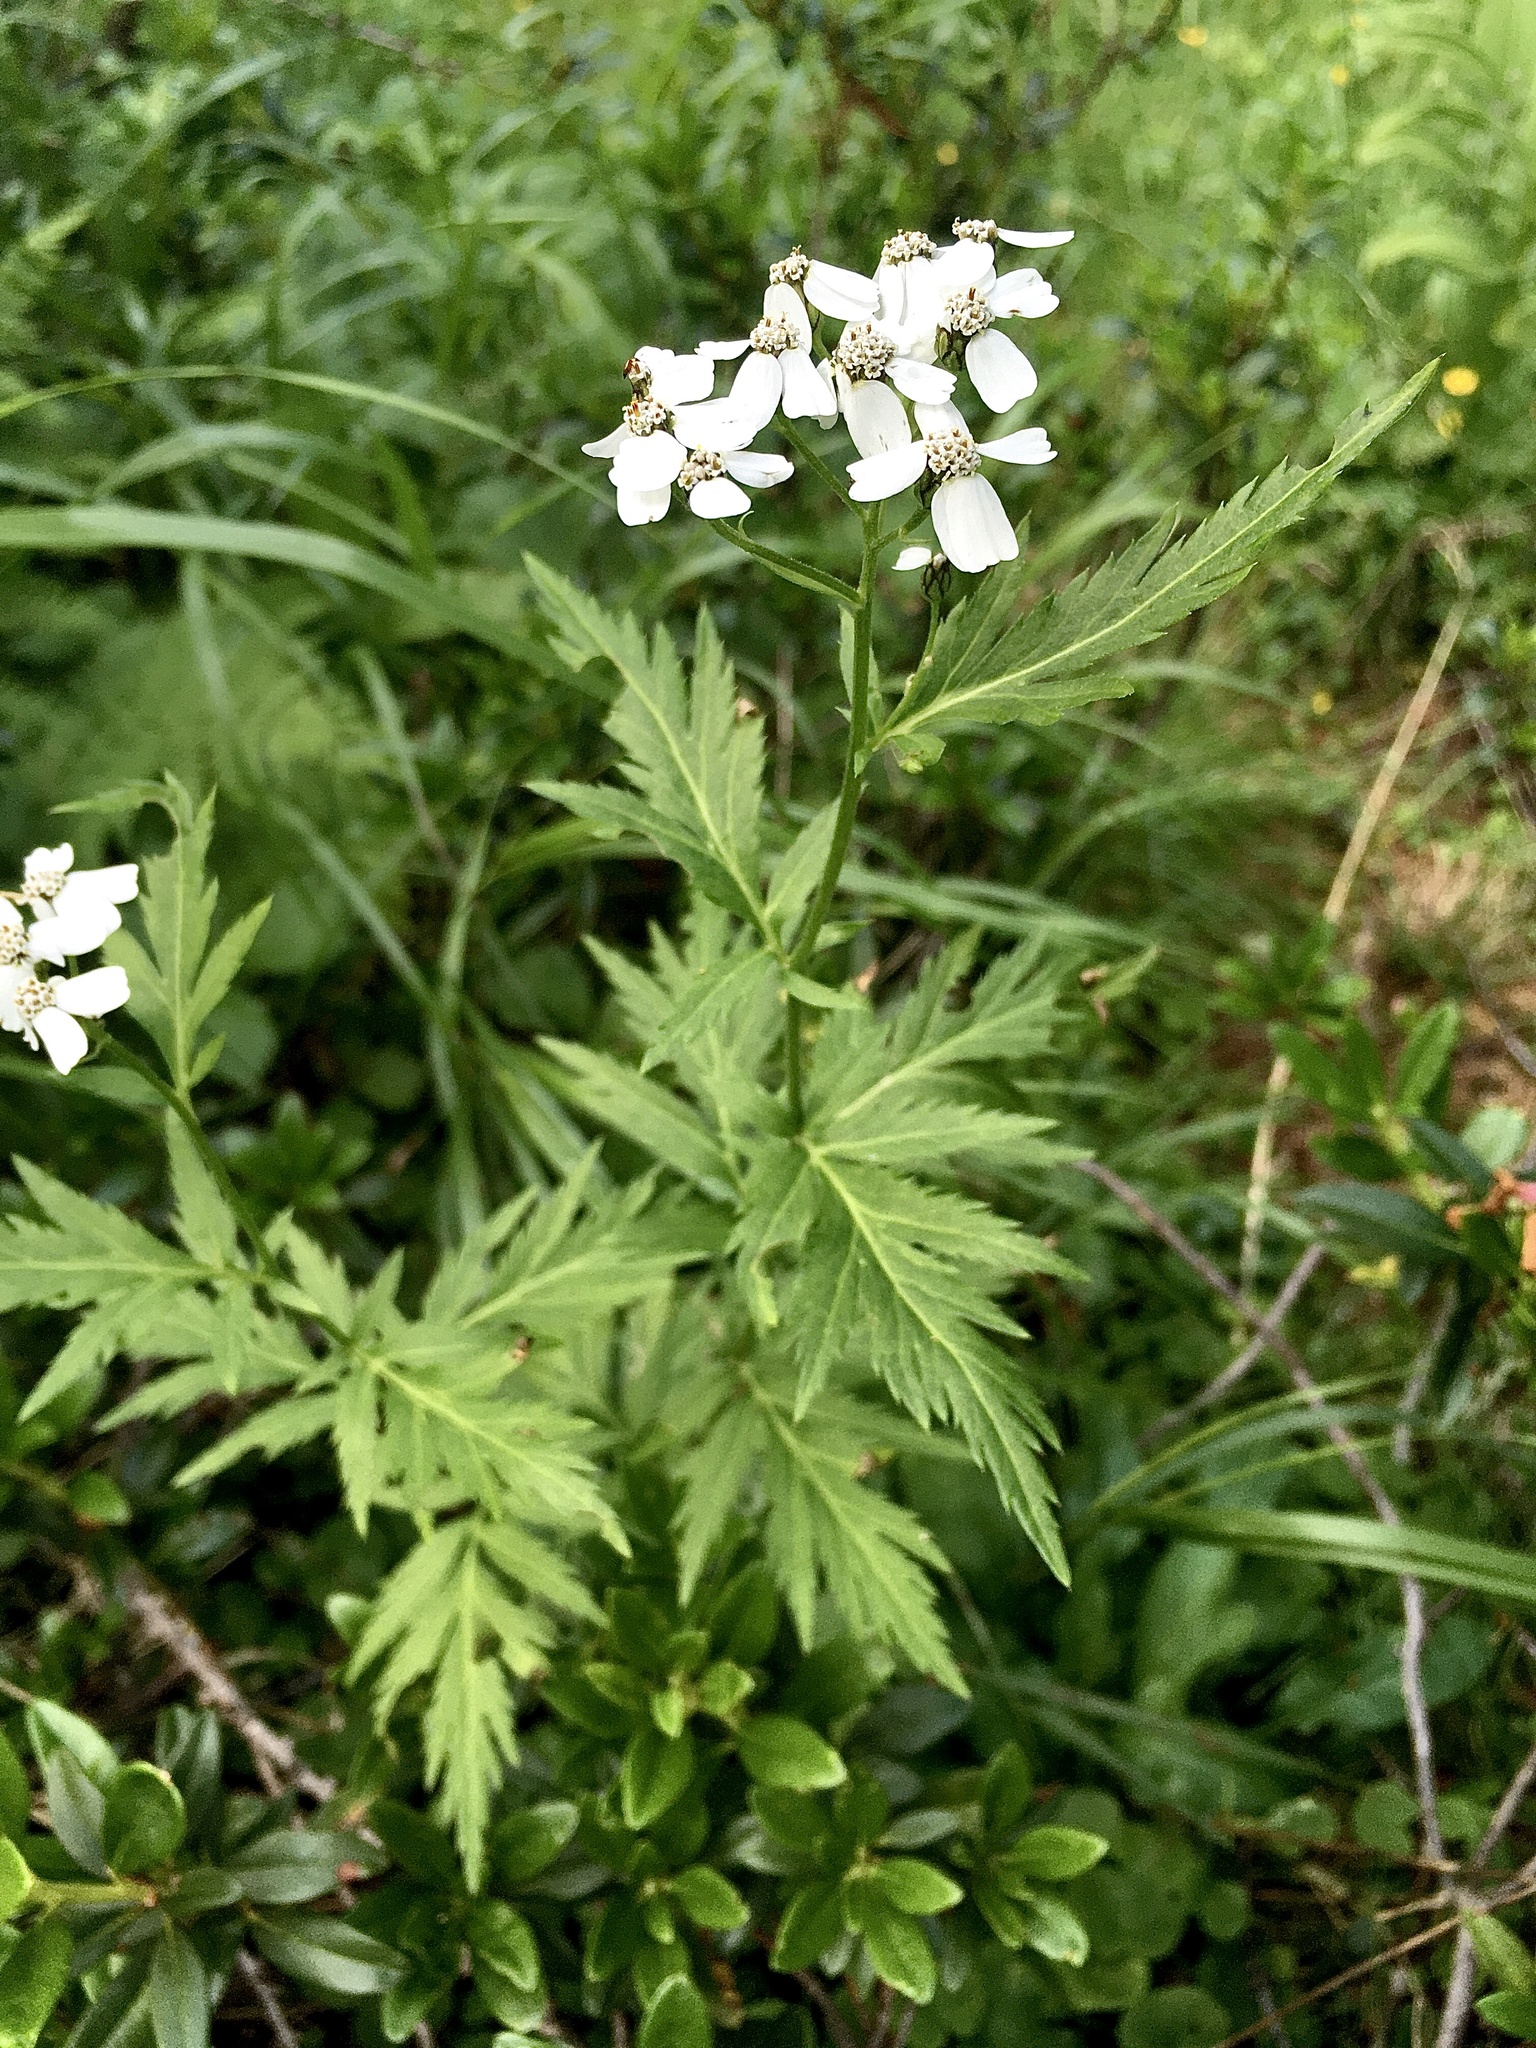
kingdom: Plantae
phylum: Tracheophyta
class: Magnoliopsida
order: Asterales
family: Asteraceae
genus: Achillea
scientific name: Achillea macrophylla
